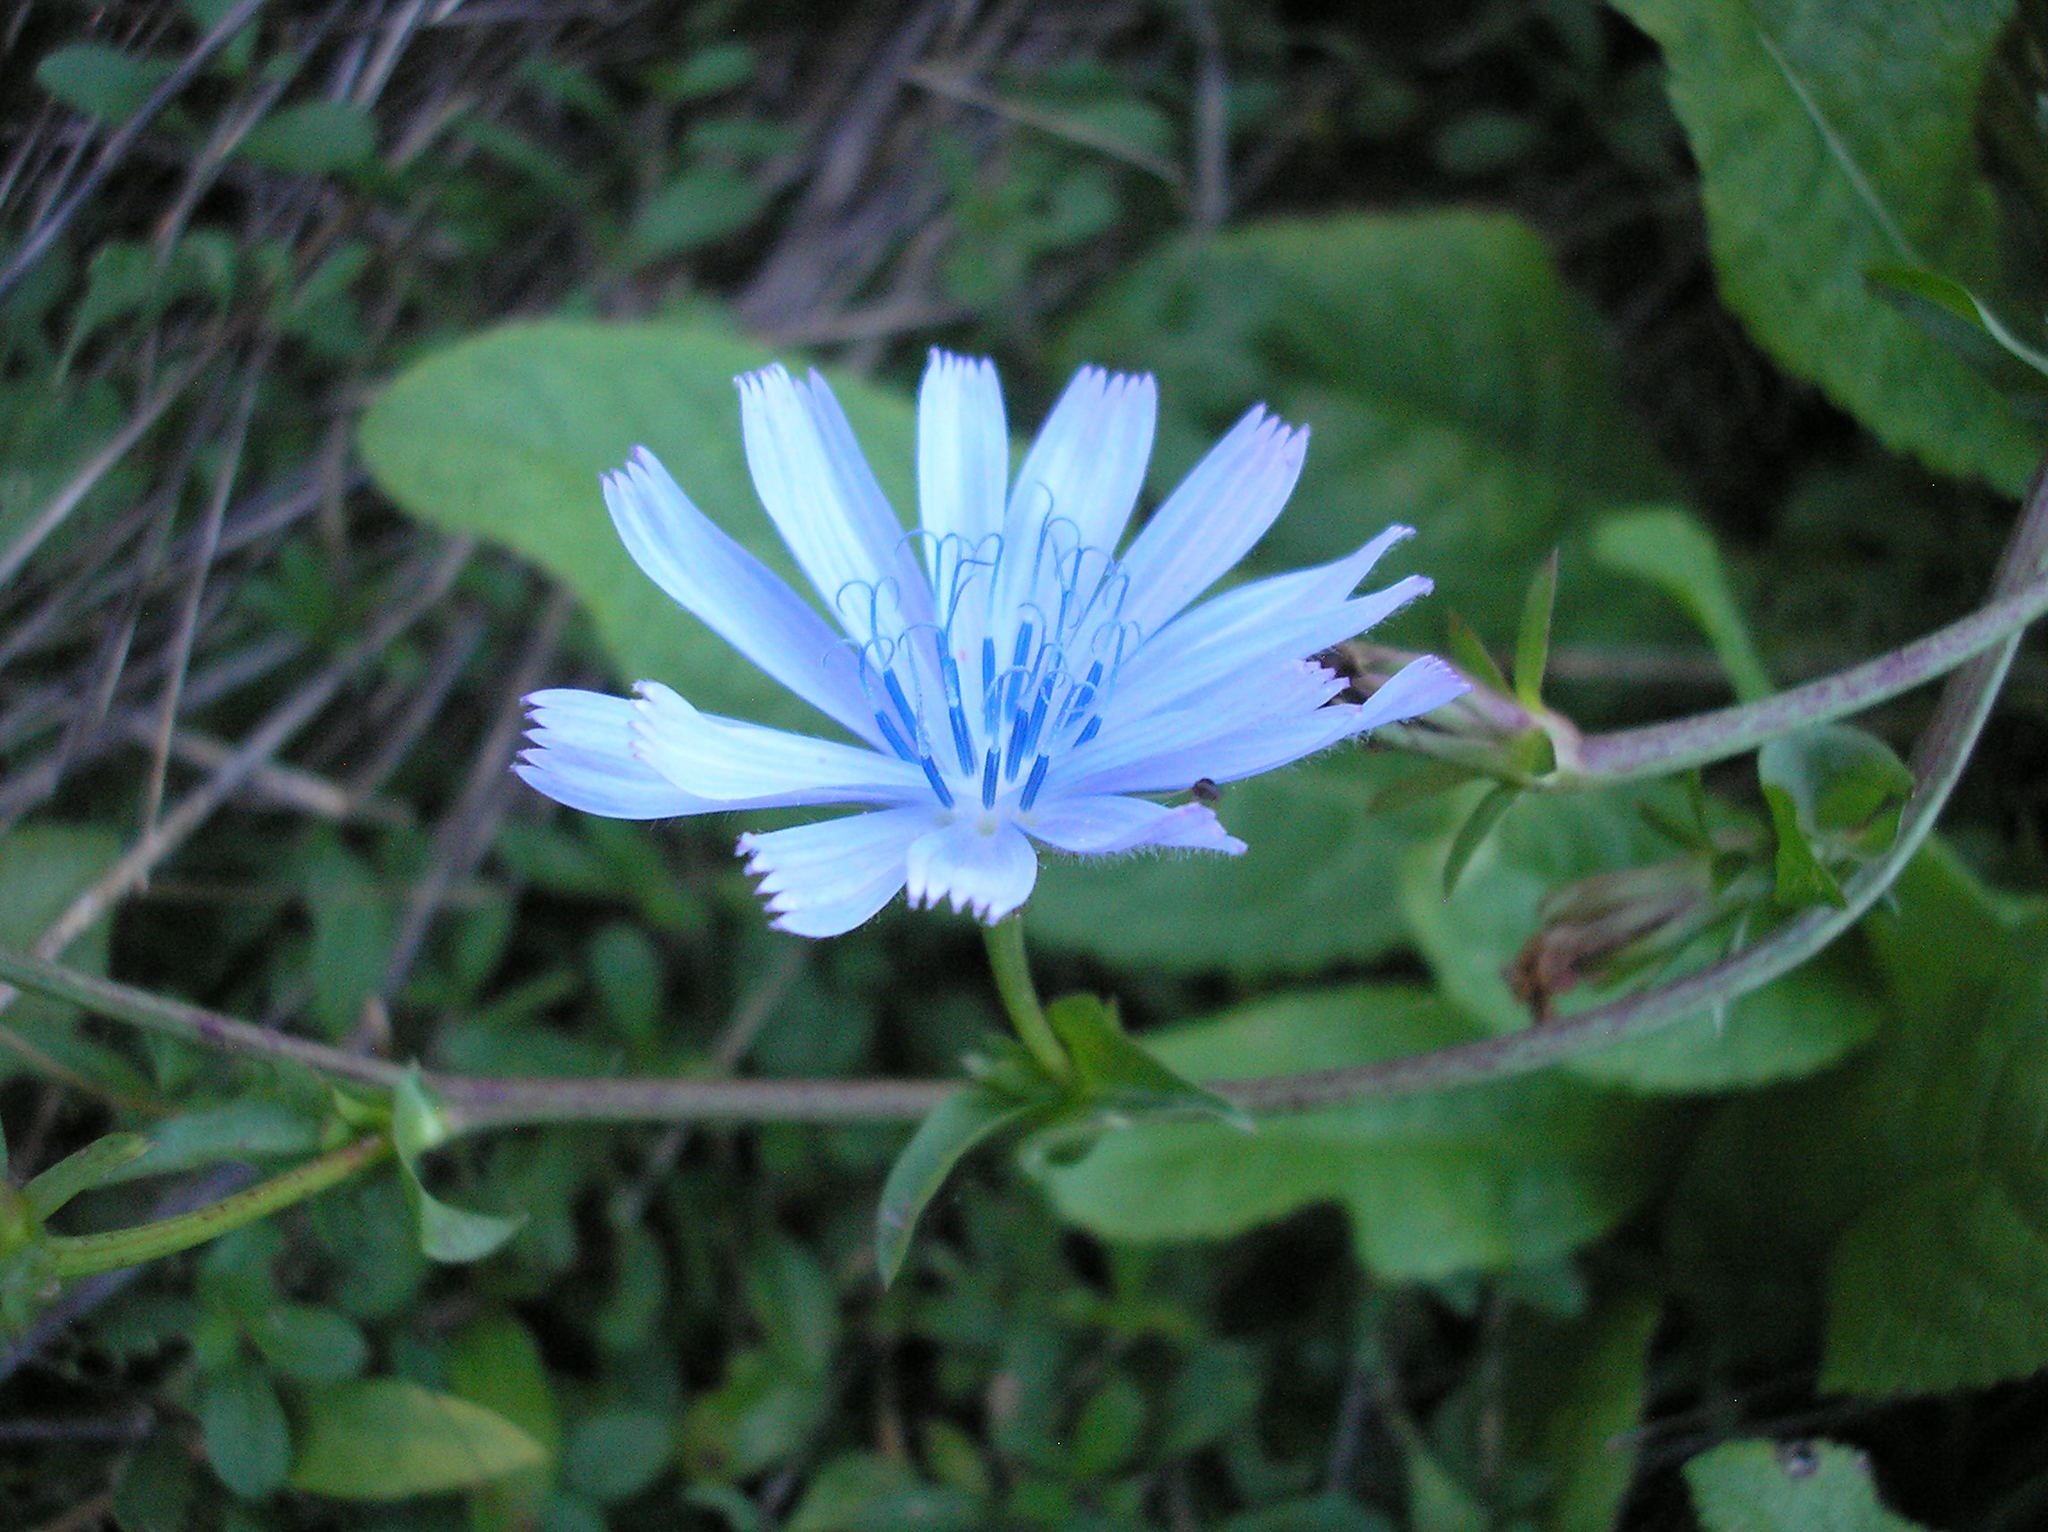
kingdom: Plantae
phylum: Tracheophyta
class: Magnoliopsida
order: Asterales
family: Asteraceae
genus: Cichorium
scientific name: Cichorium intybus
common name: Chicory
